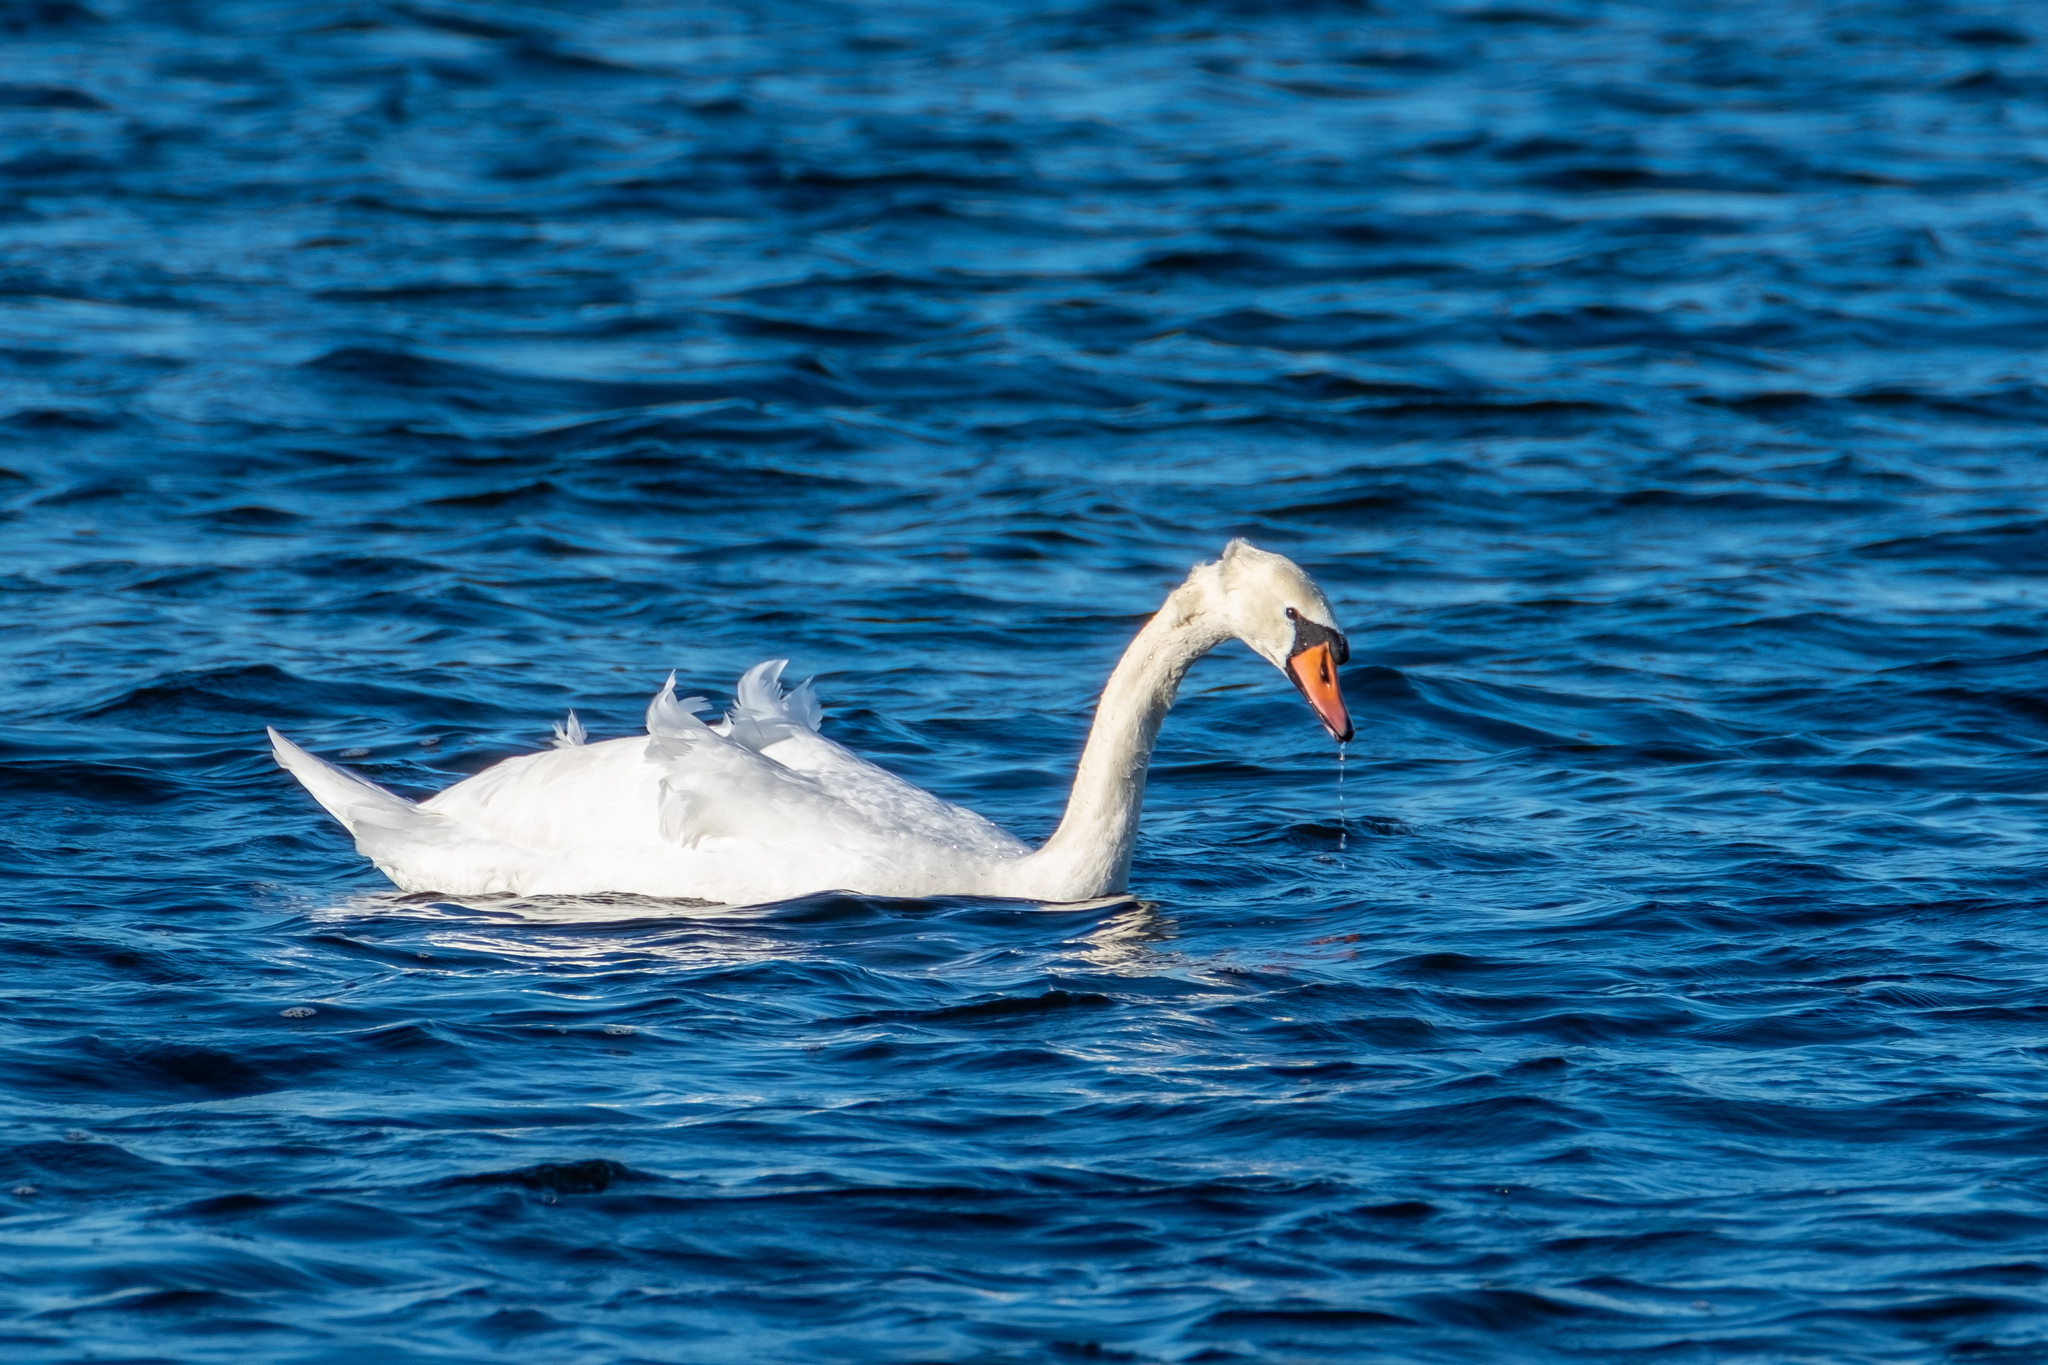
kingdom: Animalia
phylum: Chordata
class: Aves
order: Anseriformes
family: Anatidae
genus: Cygnus
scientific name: Cygnus olor
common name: Mute swan
